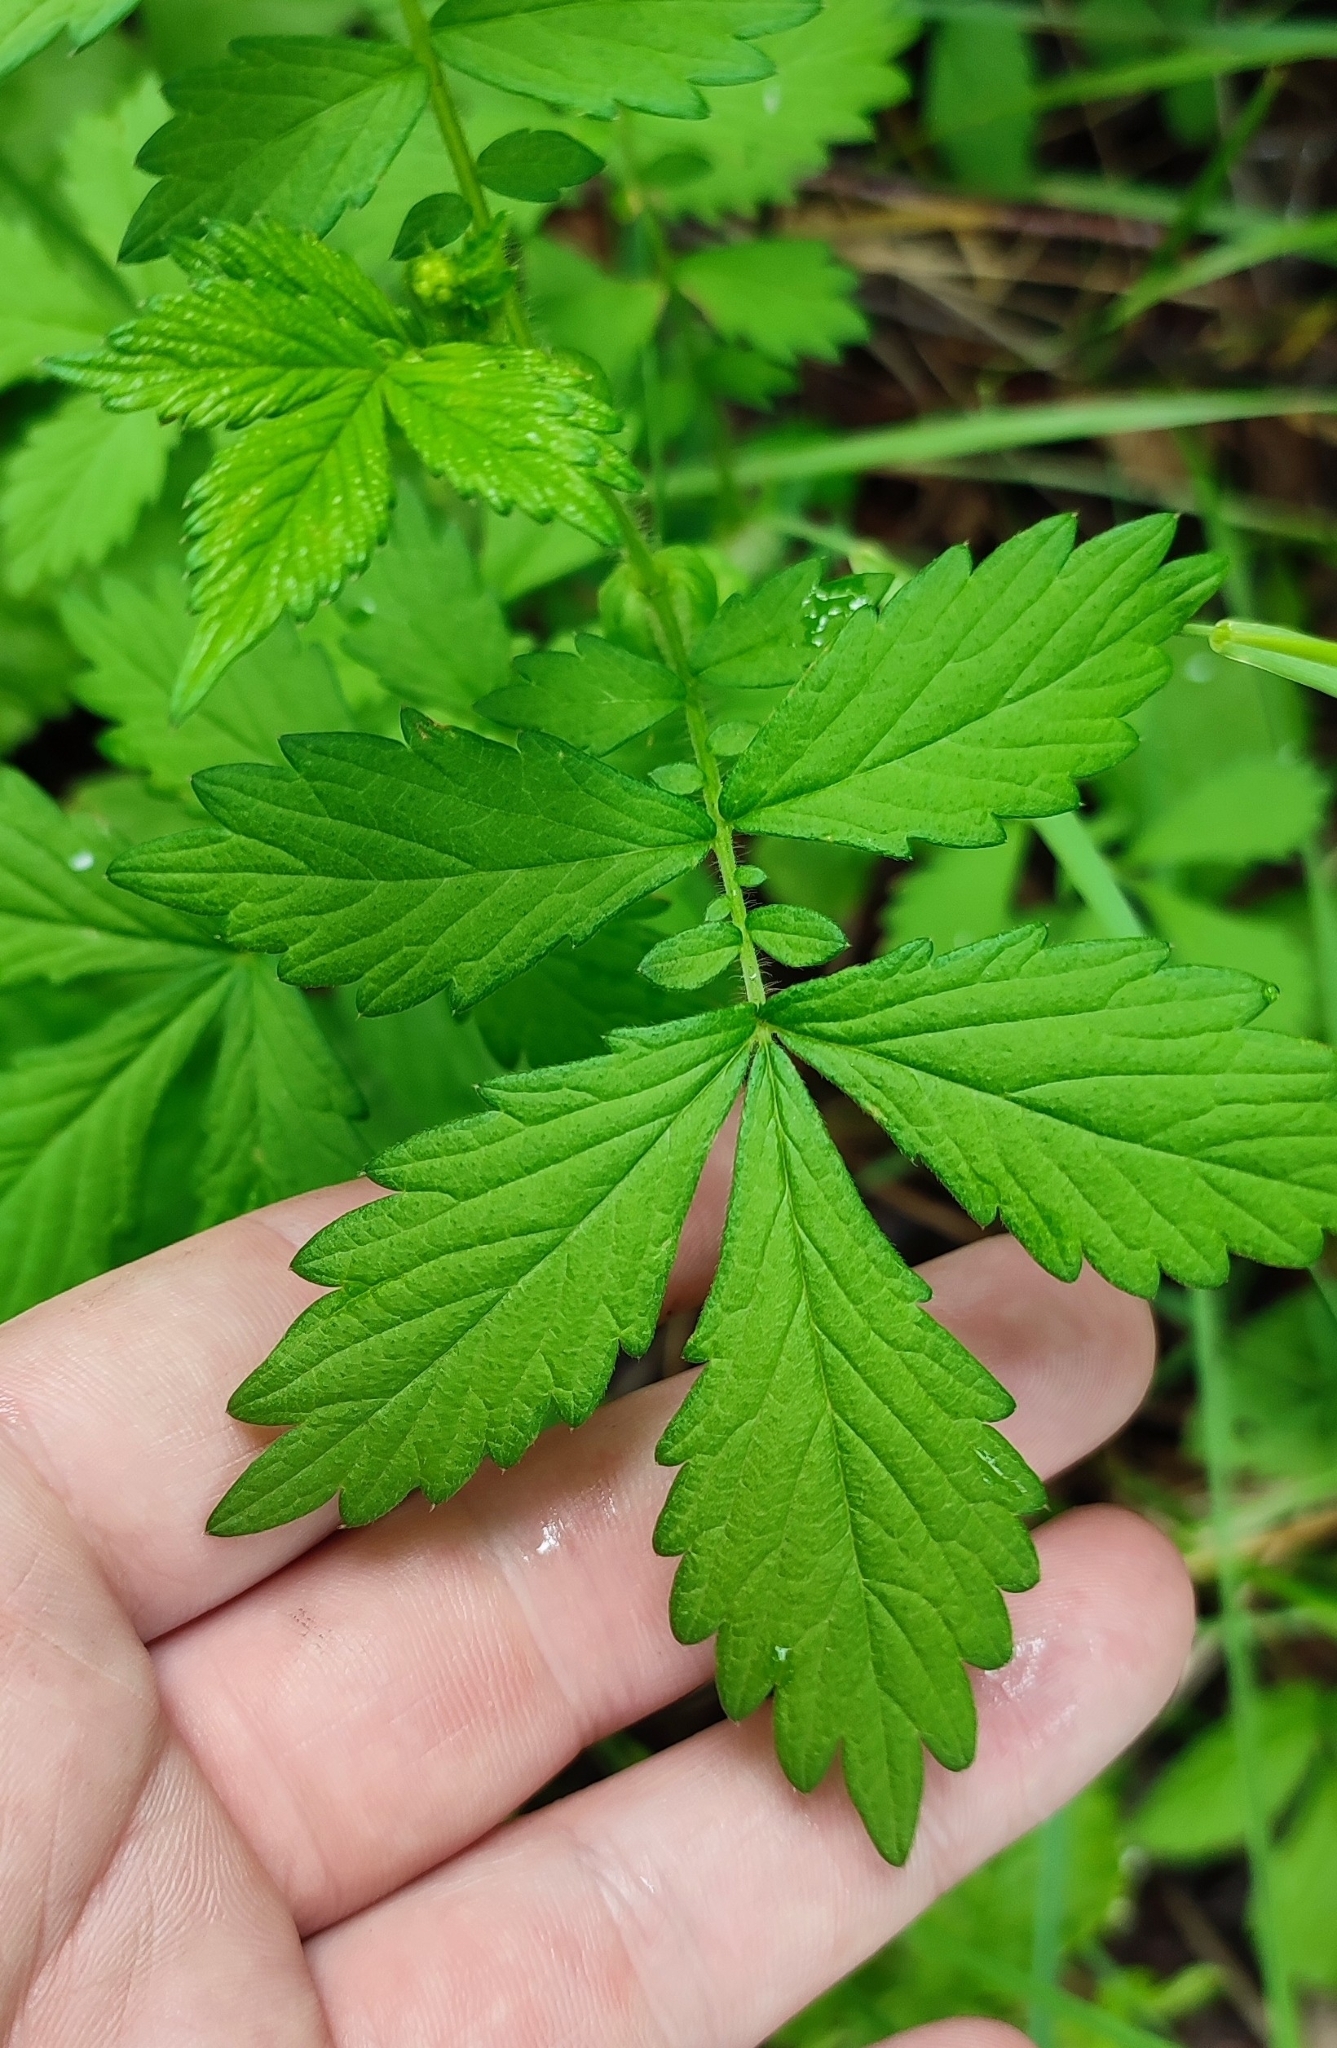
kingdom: Plantae
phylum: Tracheophyta
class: Magnoliopsida
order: Rosales
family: Rosaceae
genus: Agrimonia
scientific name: Agrimonia pilosa
